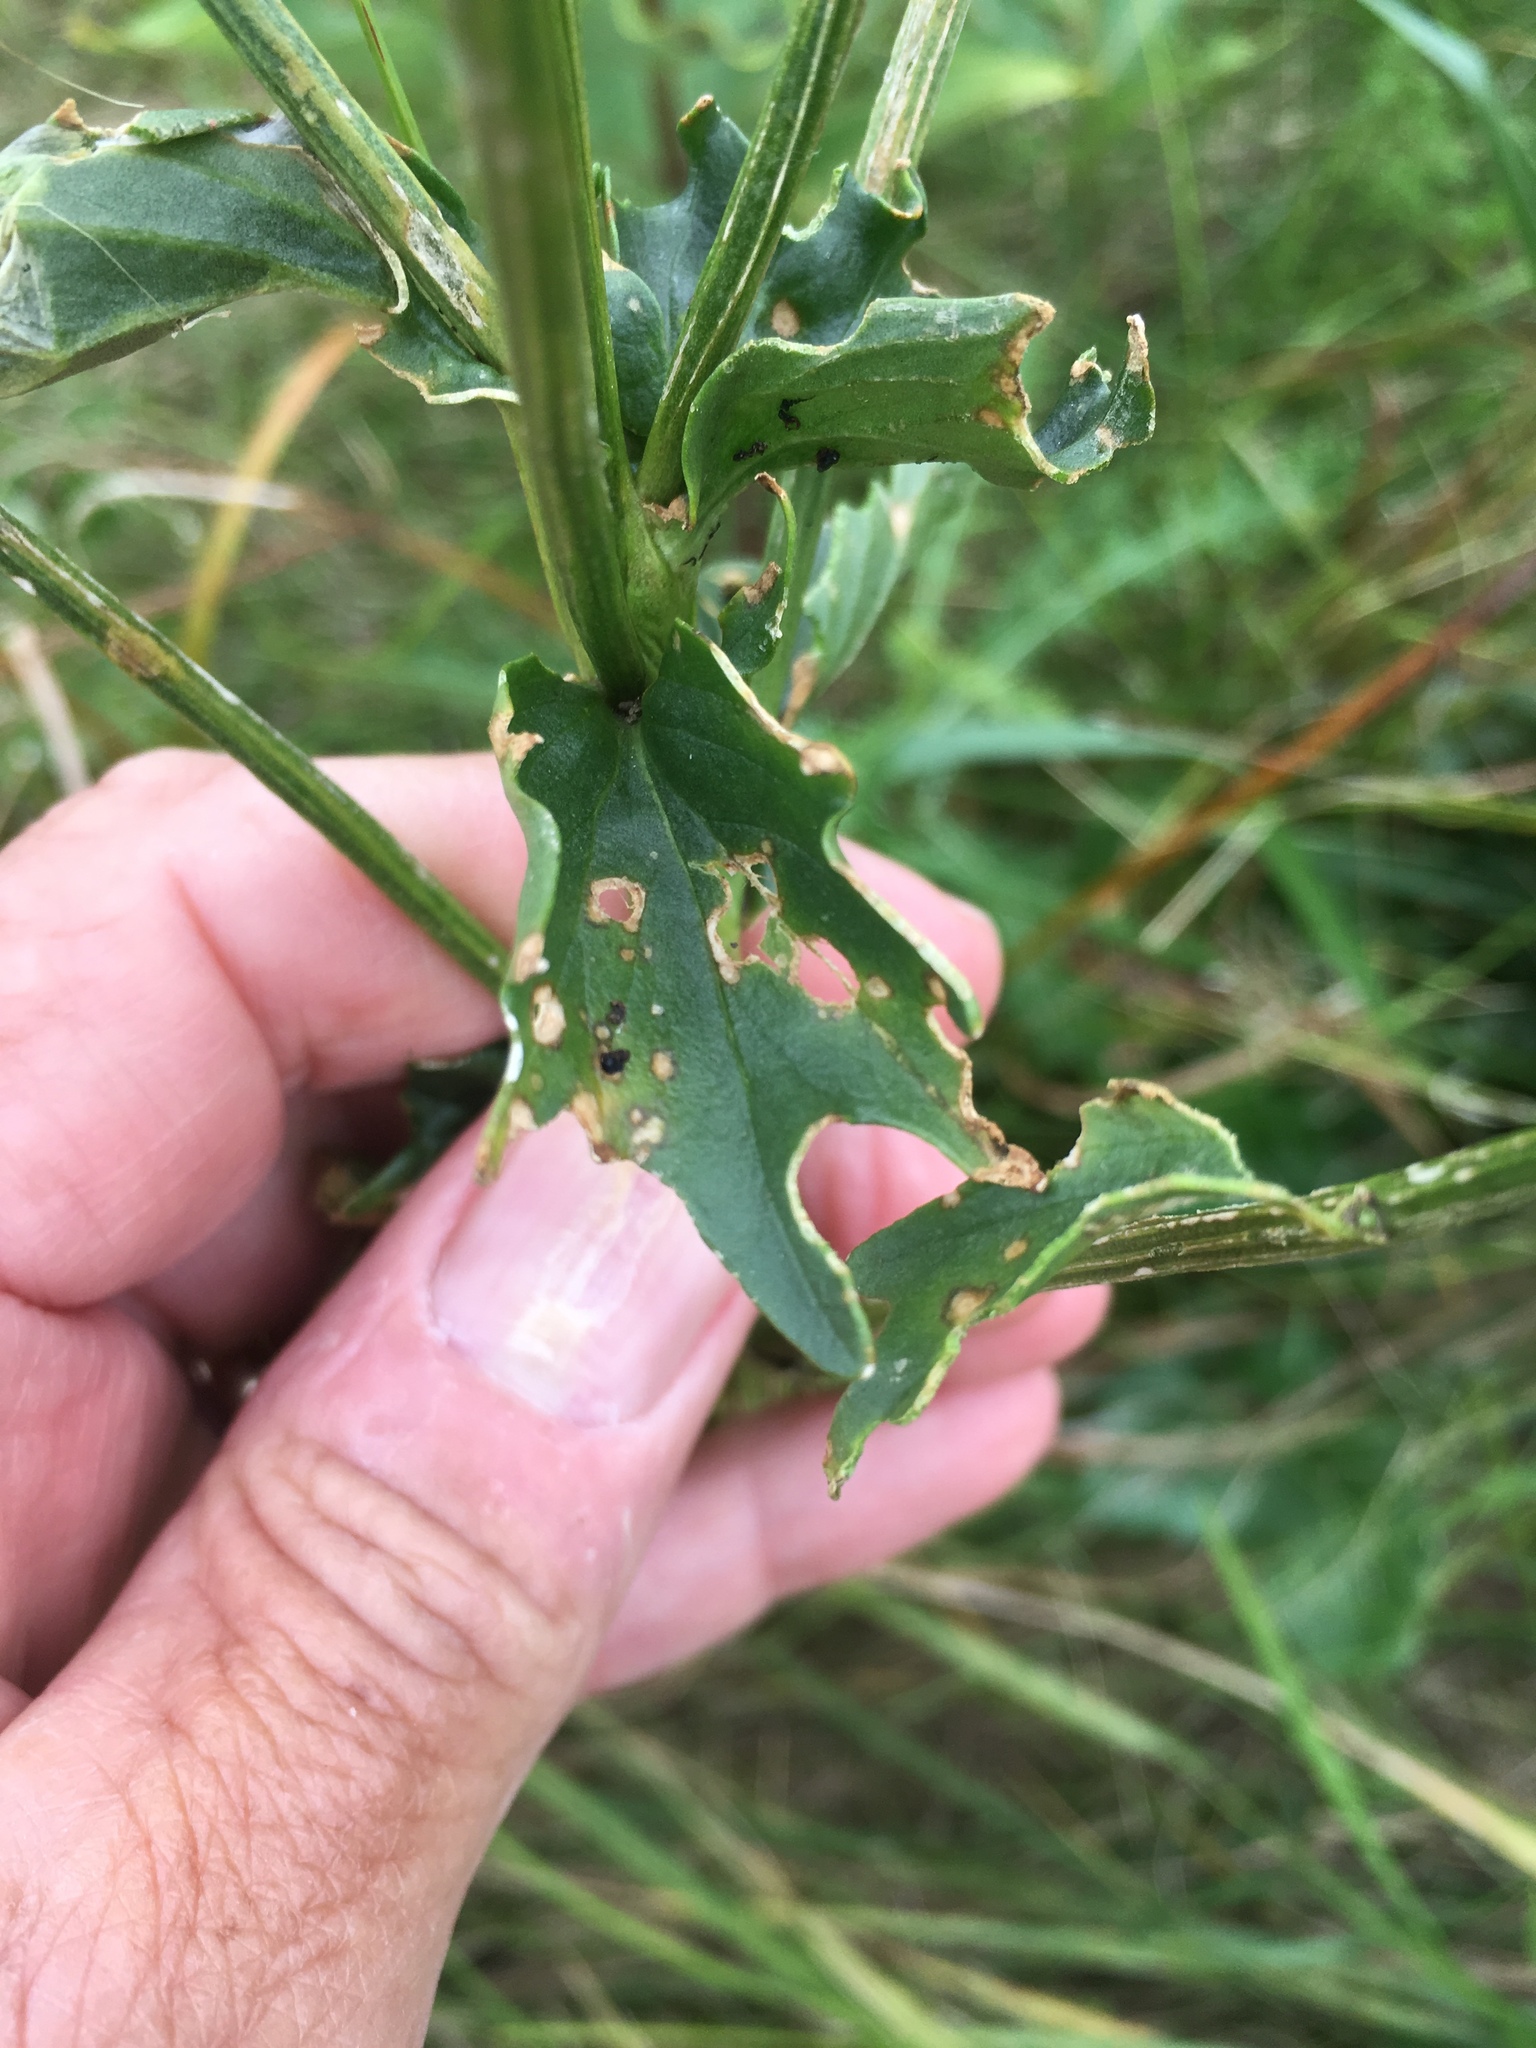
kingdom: Plantae
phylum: Tracheophyta
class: Magnoliopsida
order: Brassicales
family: Brassicaceae
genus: Barbarea
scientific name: Barbarea vulgaris
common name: Cressy-greens
